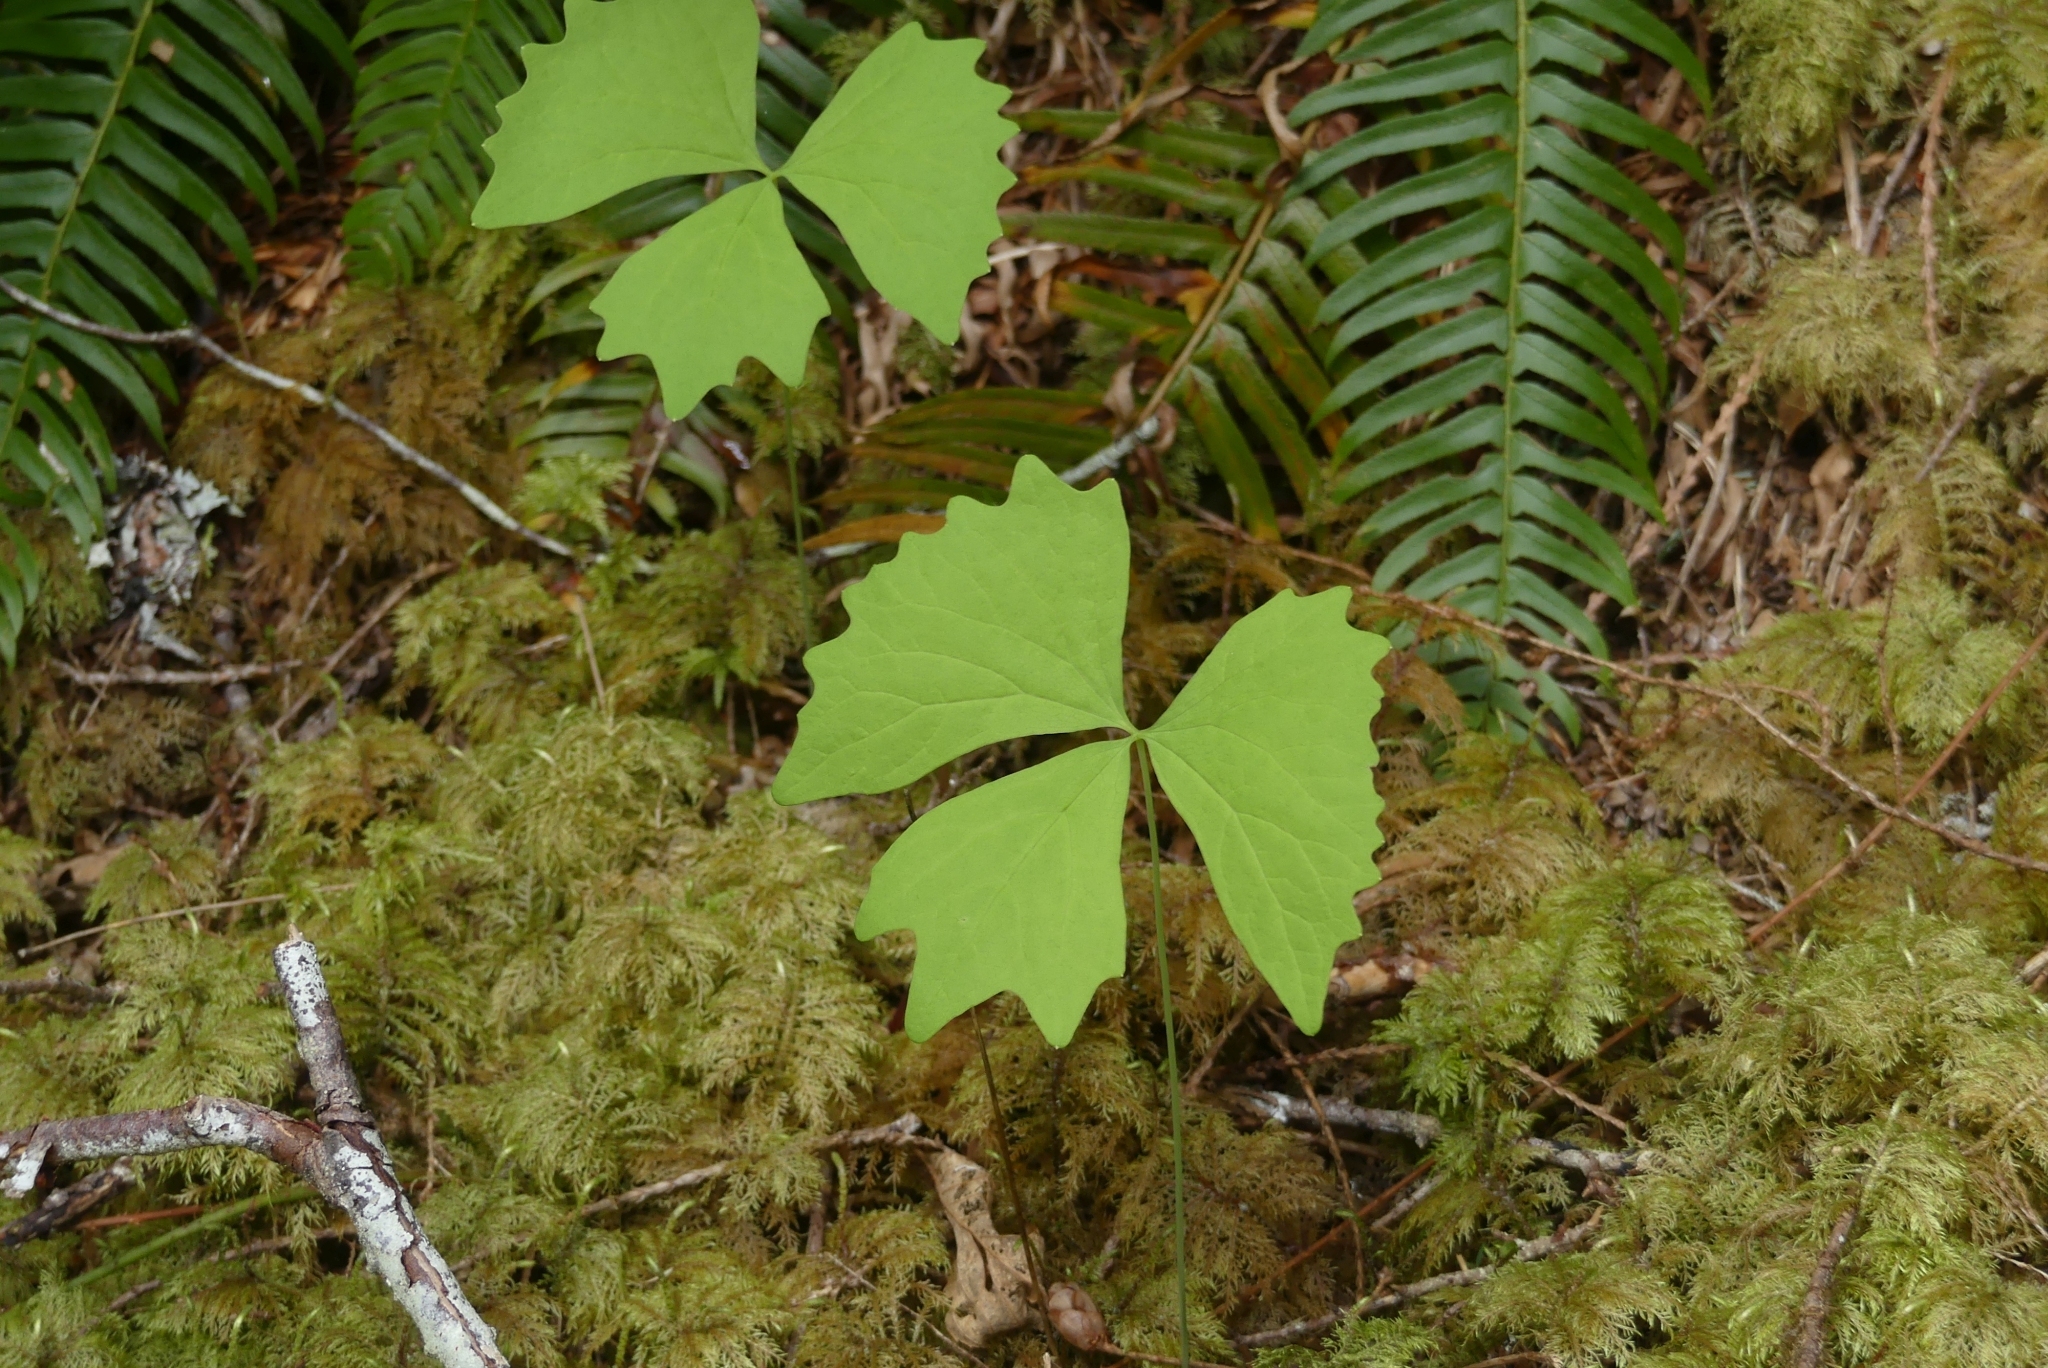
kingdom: Plantae
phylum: Tracheophyta
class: Magnoliopsida
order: Ranunculales
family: Berberidaceae
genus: Achlys
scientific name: Achlys triphylla
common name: Vanilla-leaf
